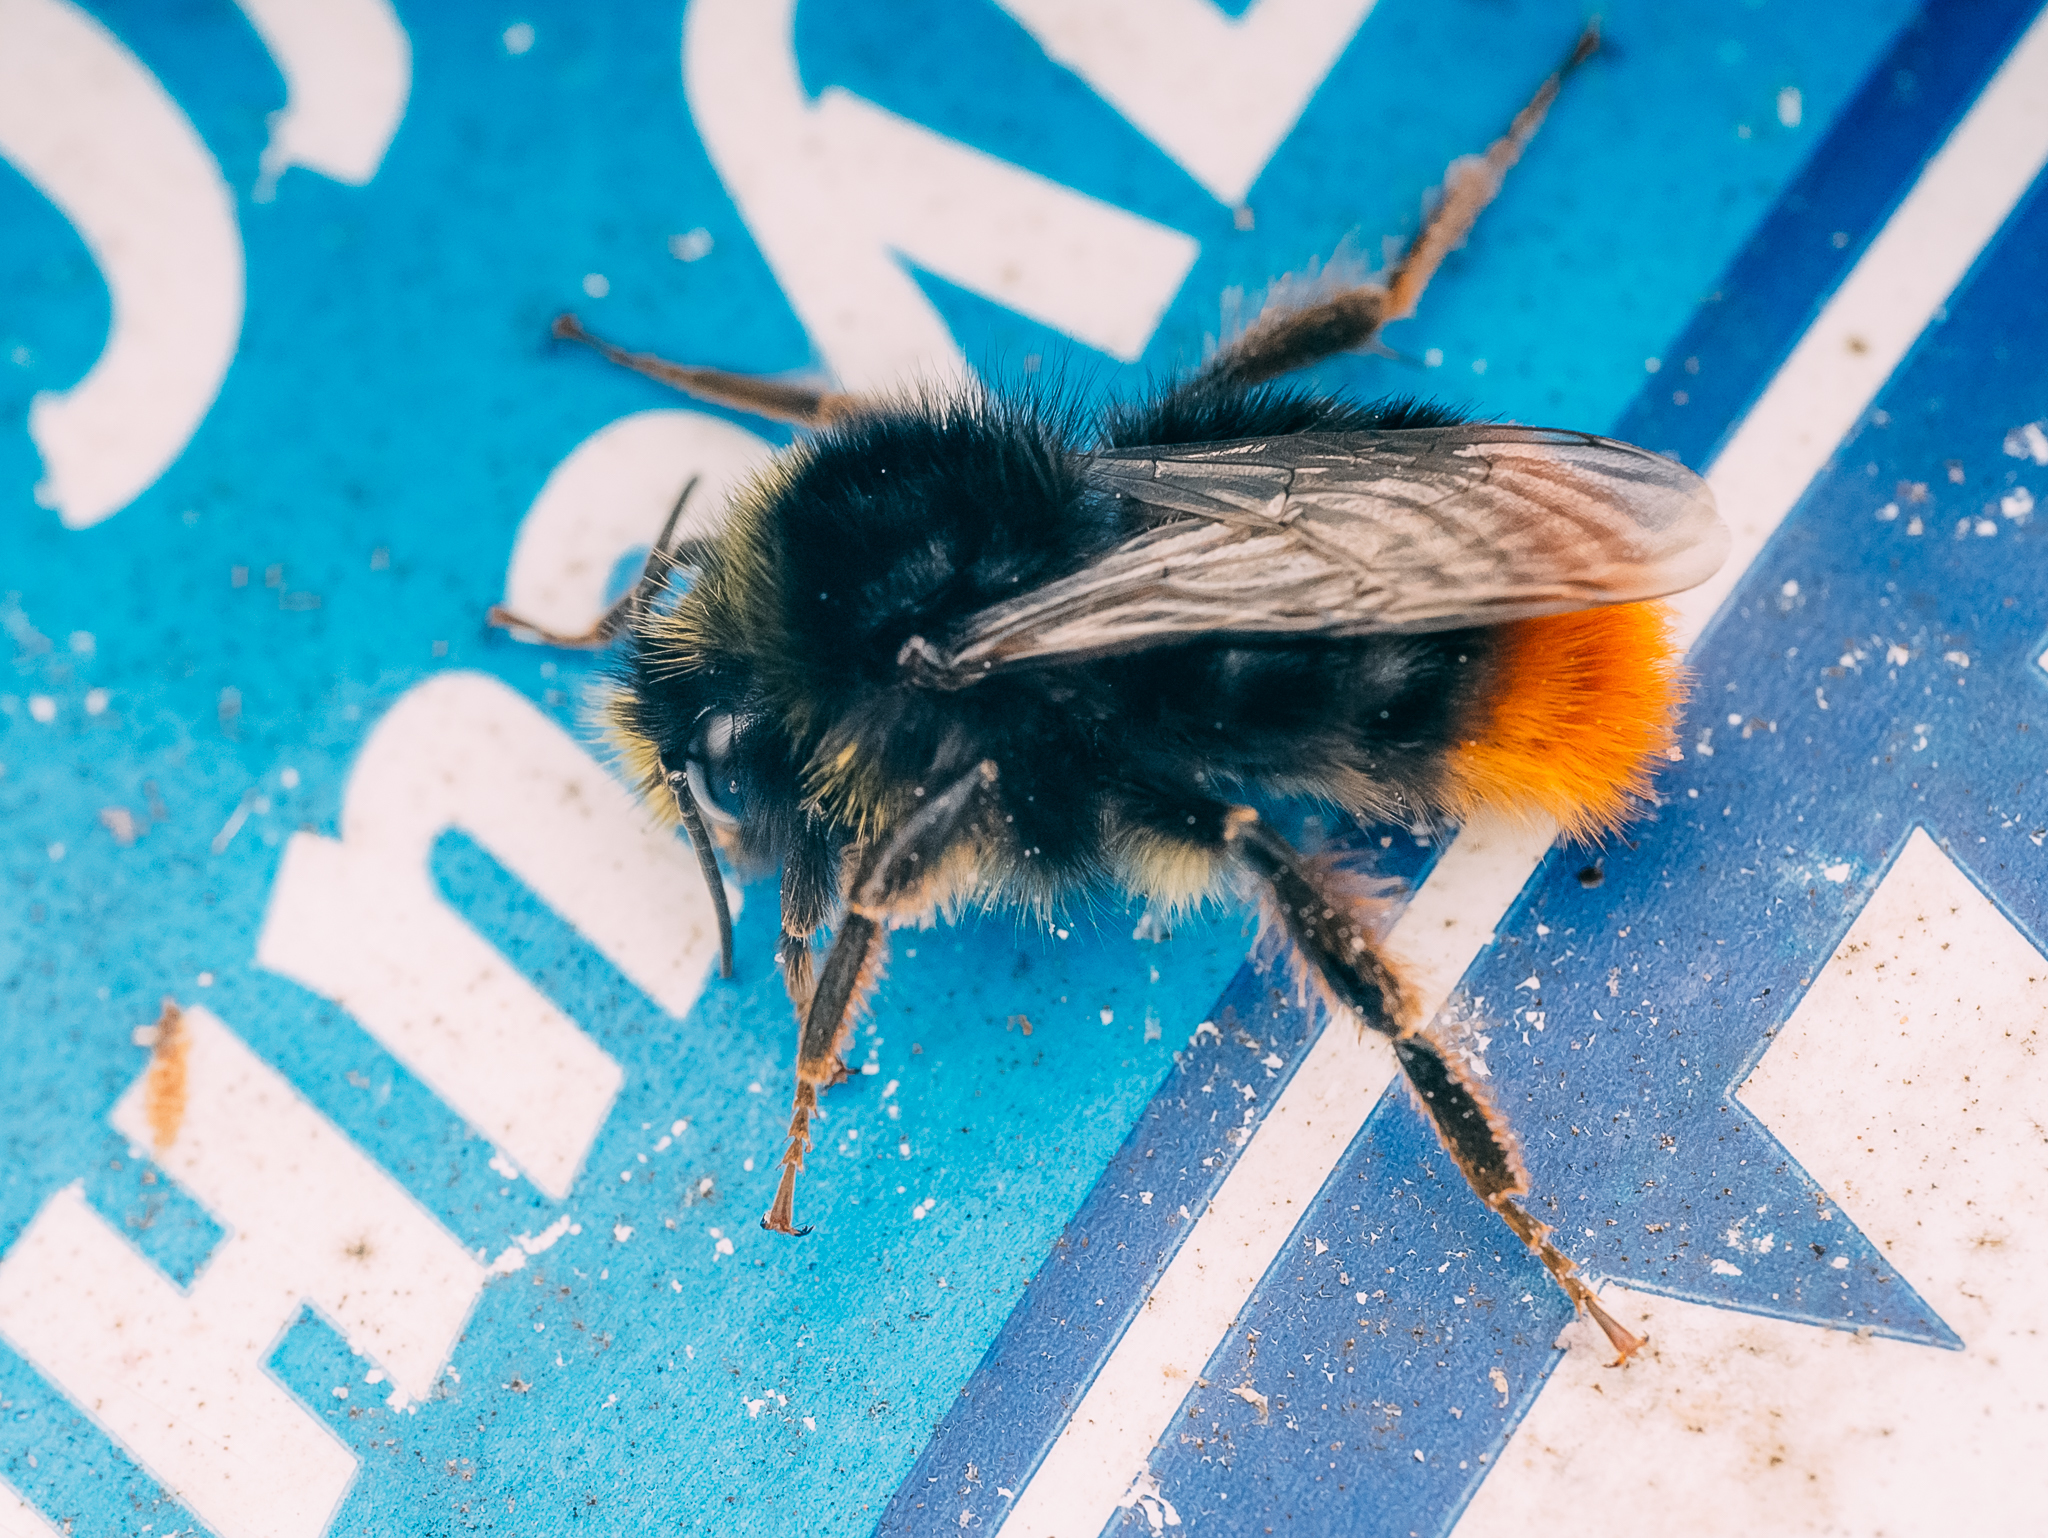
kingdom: Animalia
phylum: Arthropoda
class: Insecta
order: Hymenoptera
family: Apidae
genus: Bombus
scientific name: Bombus lapidarius
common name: Large red-tailed humble-bee
